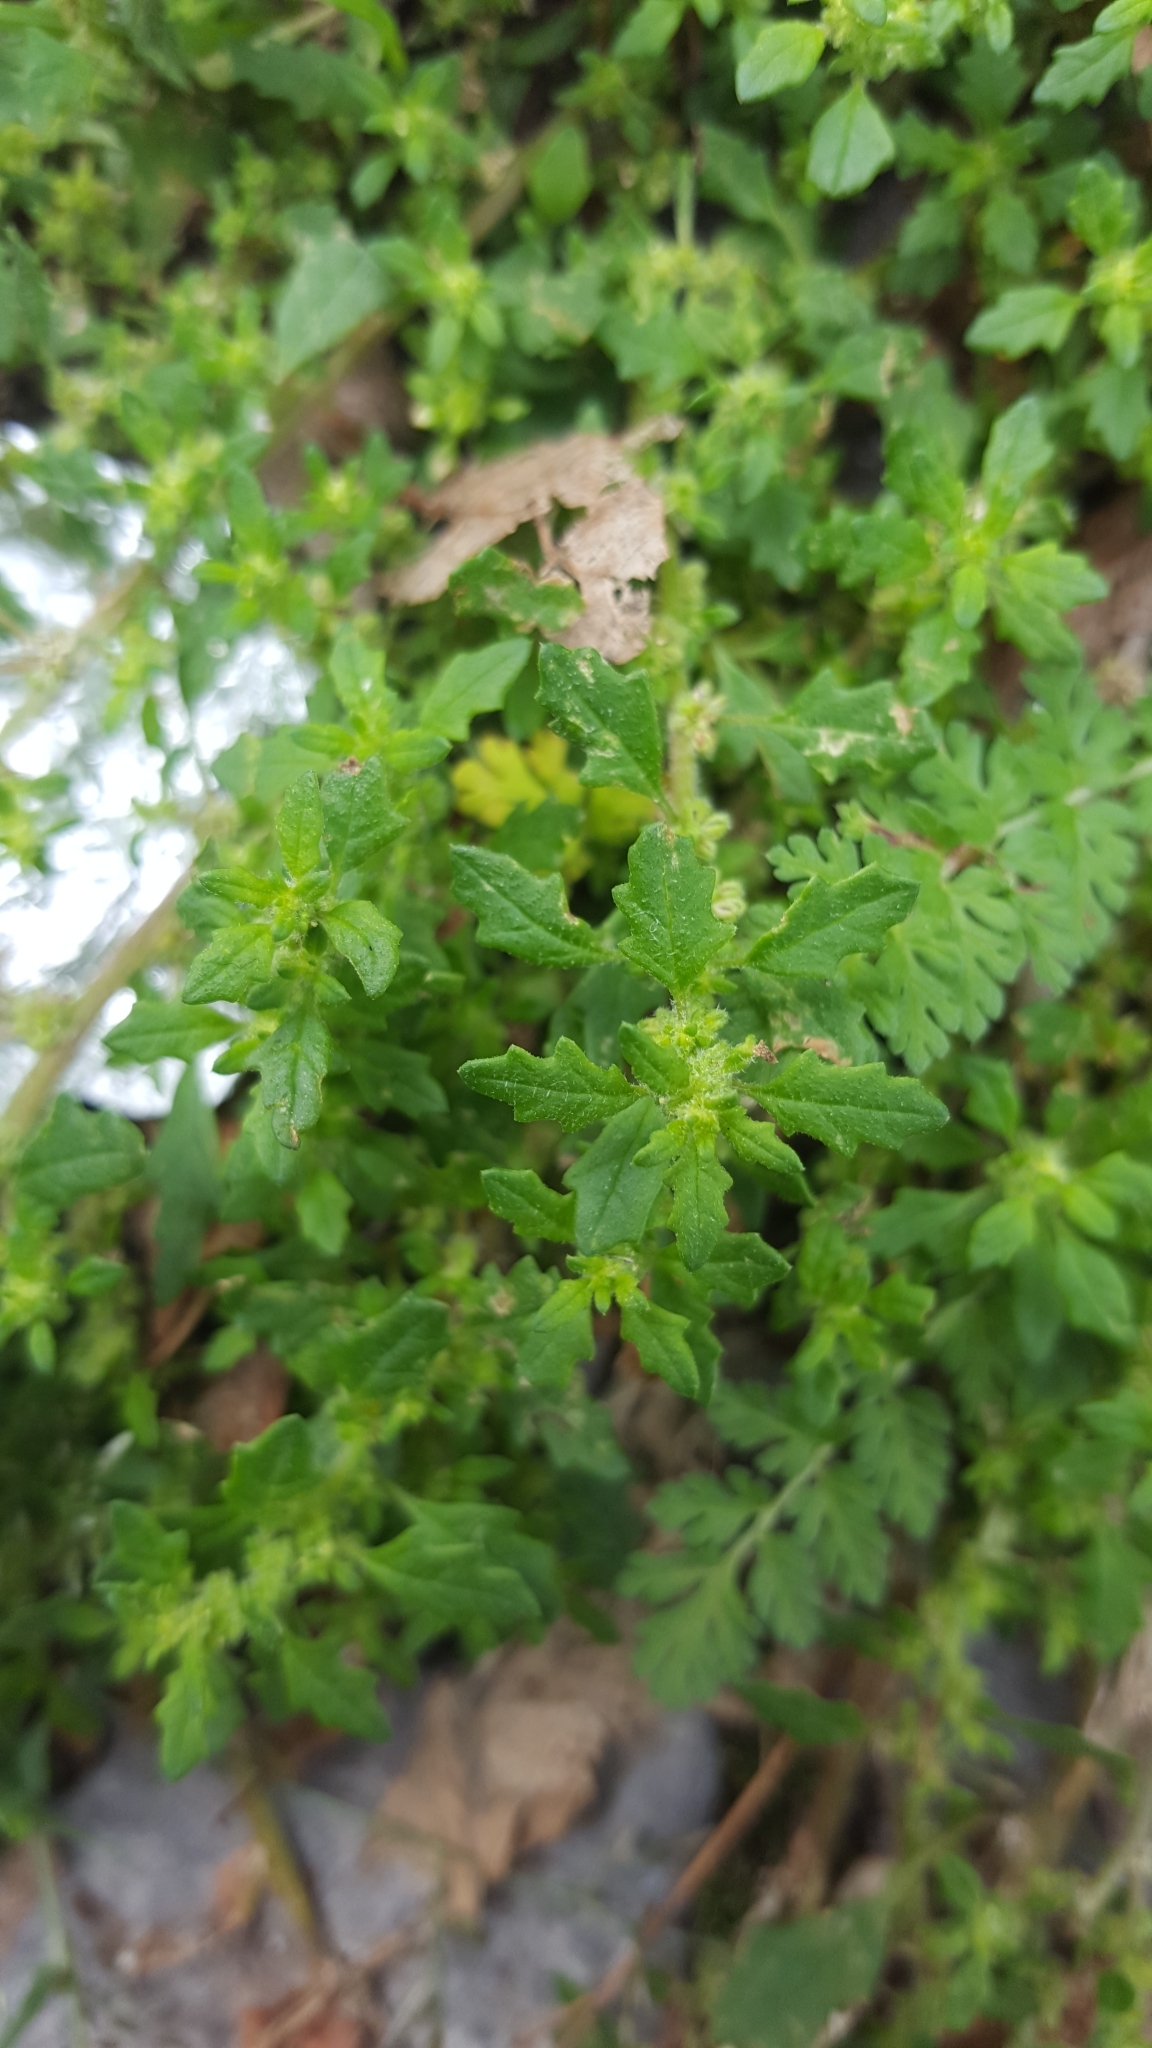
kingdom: Plantae
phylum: Tracheophyta
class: Magnoliopsida
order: Caryophyllales
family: Amaranthaceae
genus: Dysphania
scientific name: Dysphania pumilio
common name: Clammy goosefoot
